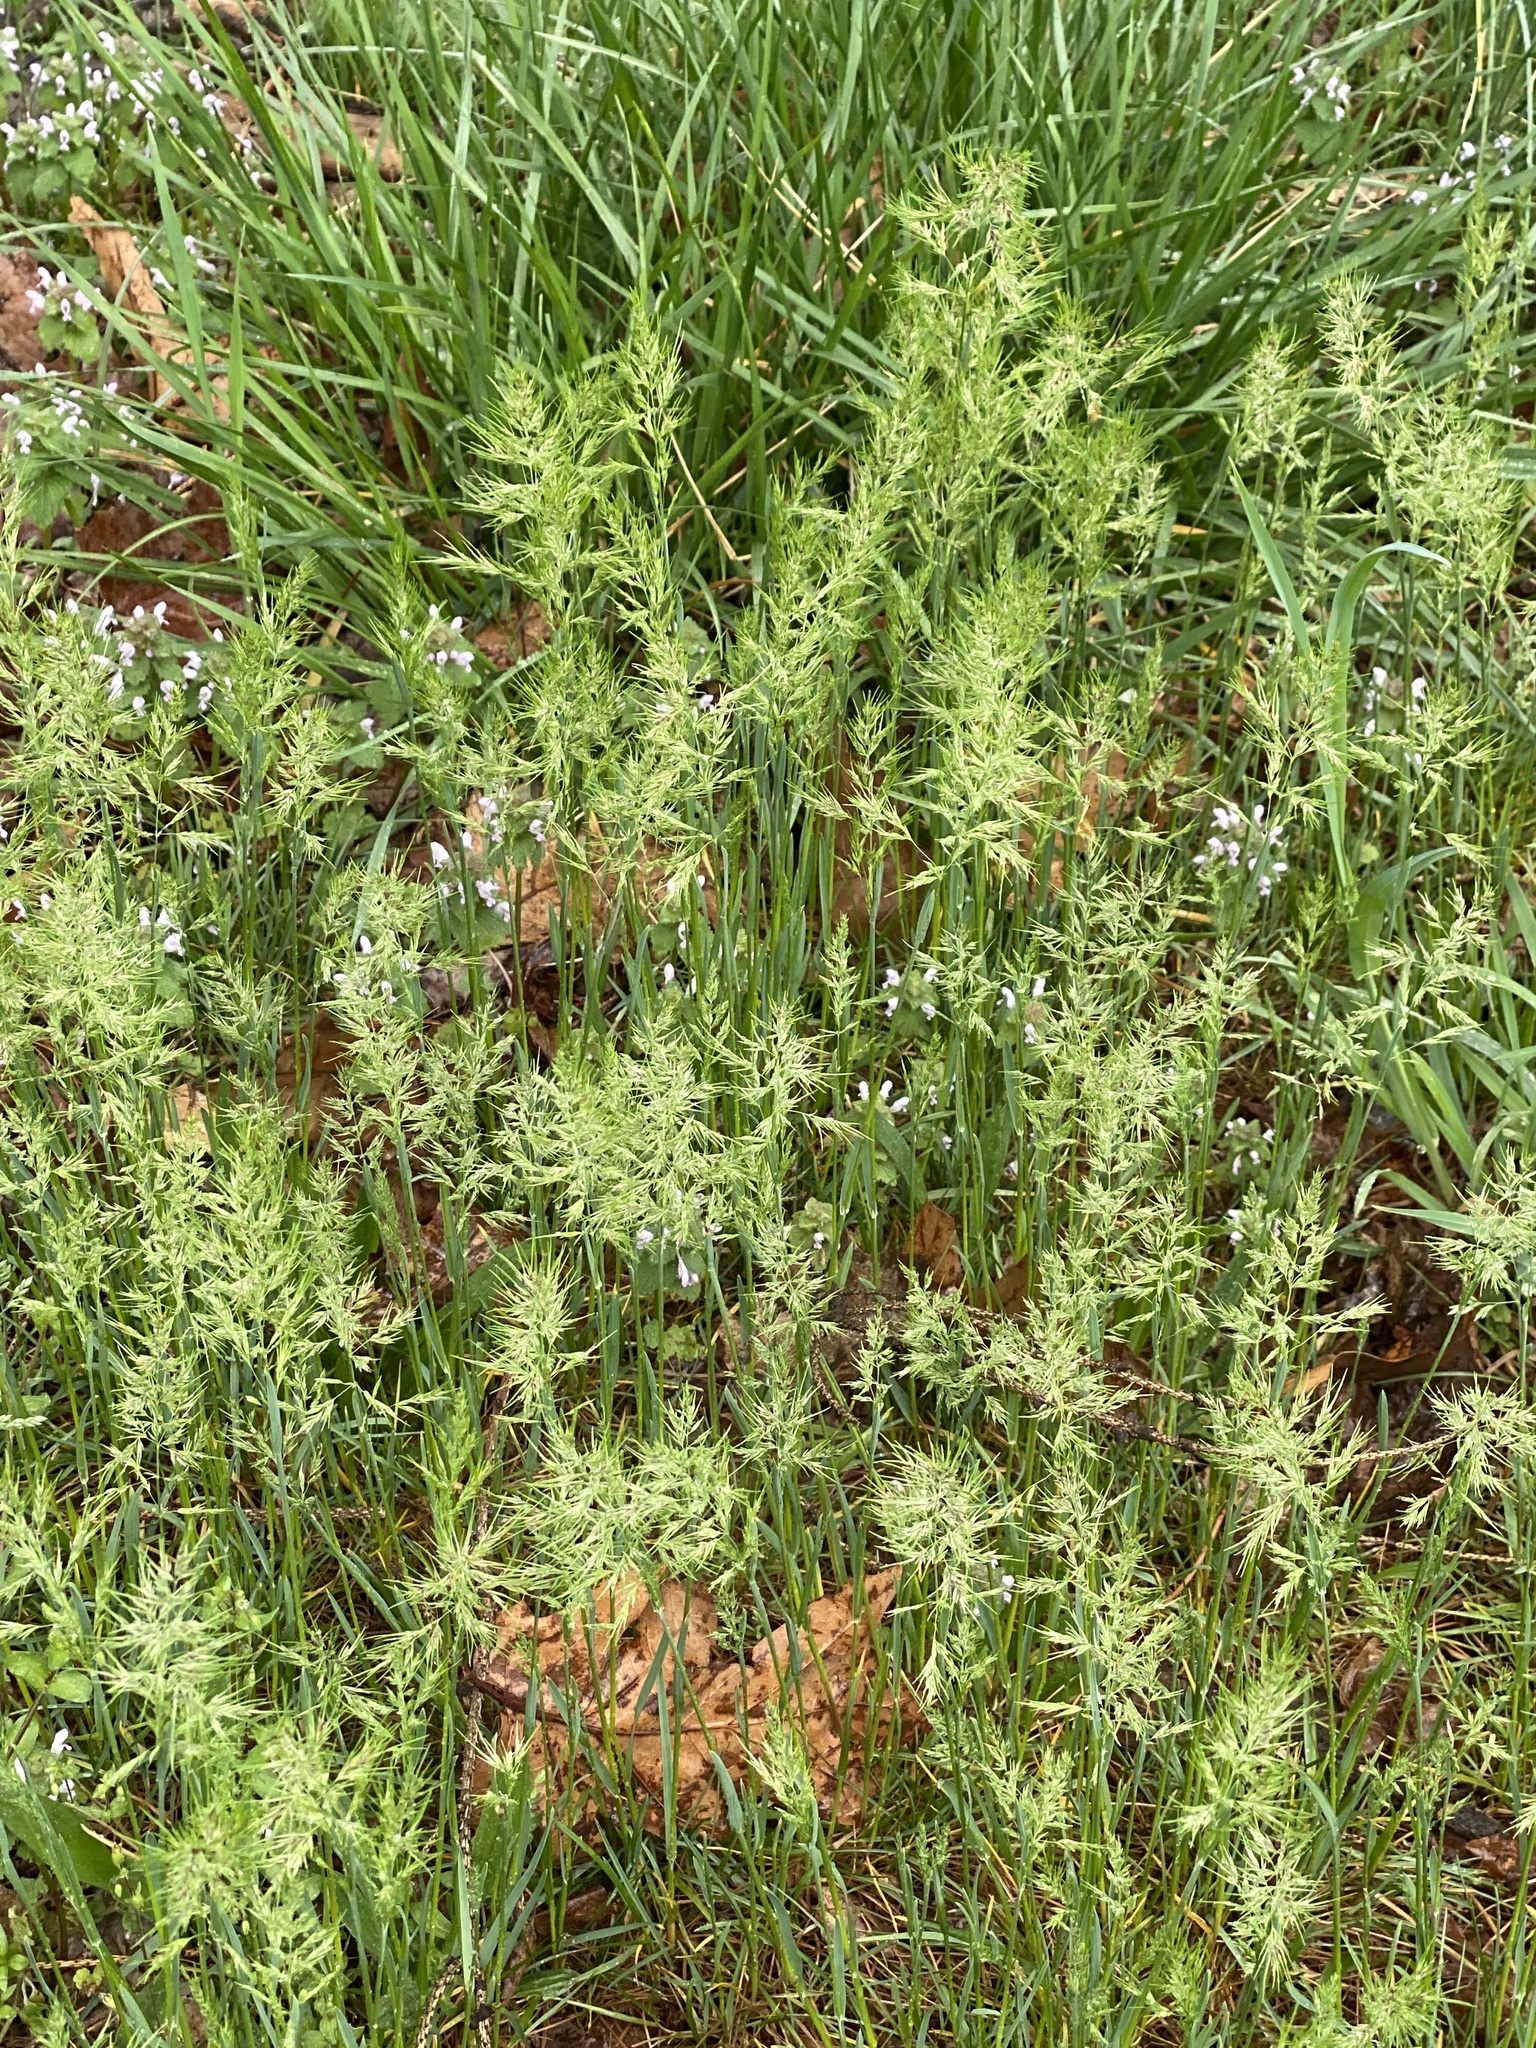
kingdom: Plantae
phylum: Tracheophyta
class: Liliopsida
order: Poales
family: Poaceae
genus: Poa
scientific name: Poa bulbosa
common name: Bulbous bluegrass
